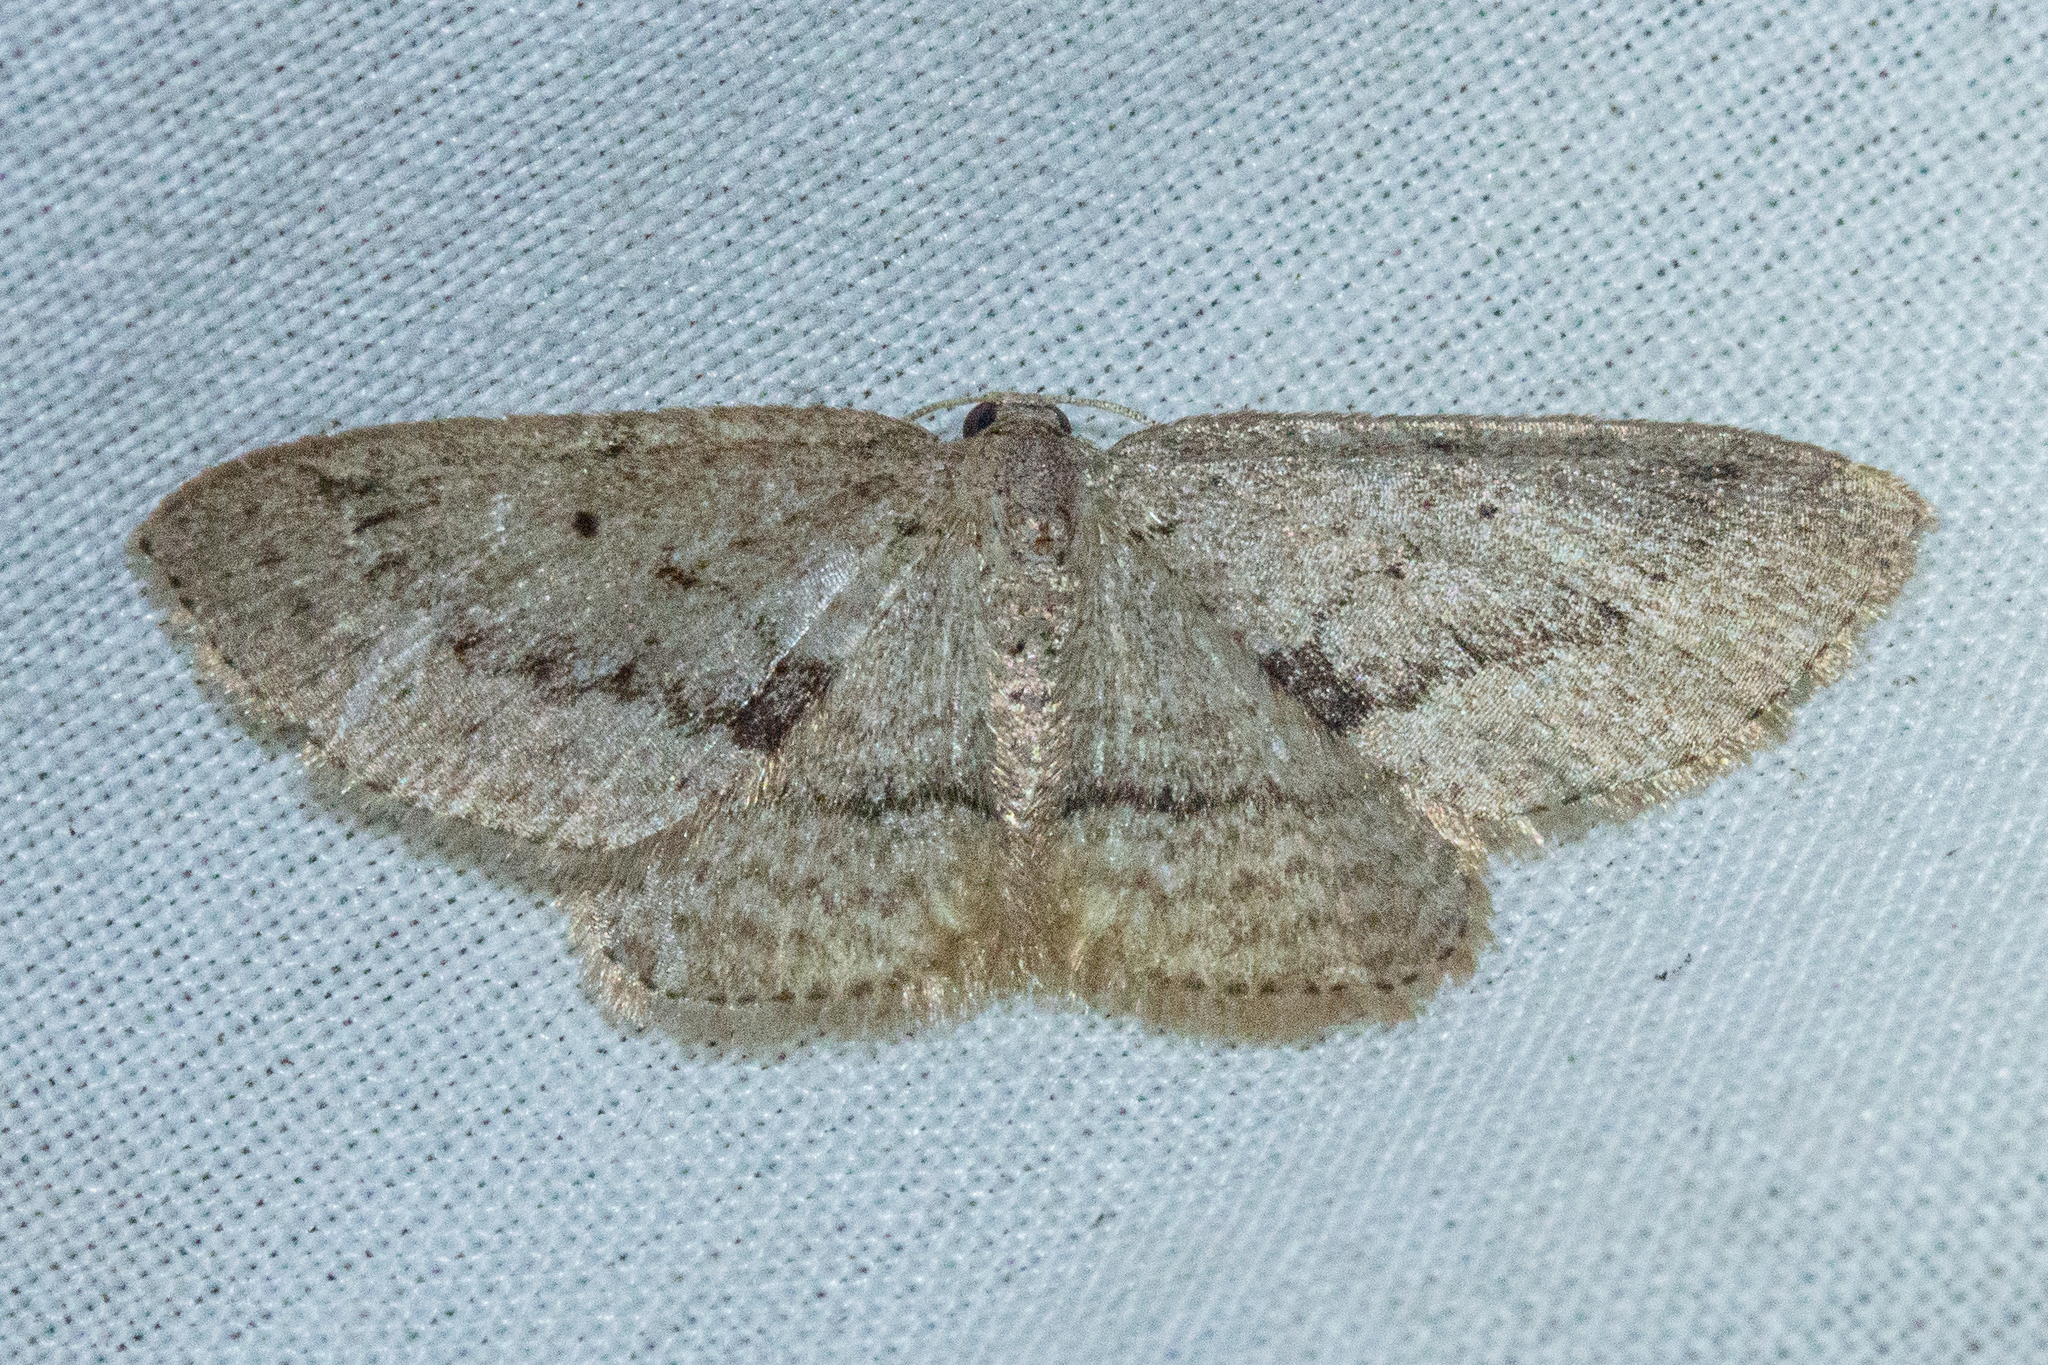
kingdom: Animalia
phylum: Arthropoda
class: Insecta
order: Lepidoptera
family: Geometridae
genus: Poecilasthena
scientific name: Poecilasthena schistaria
